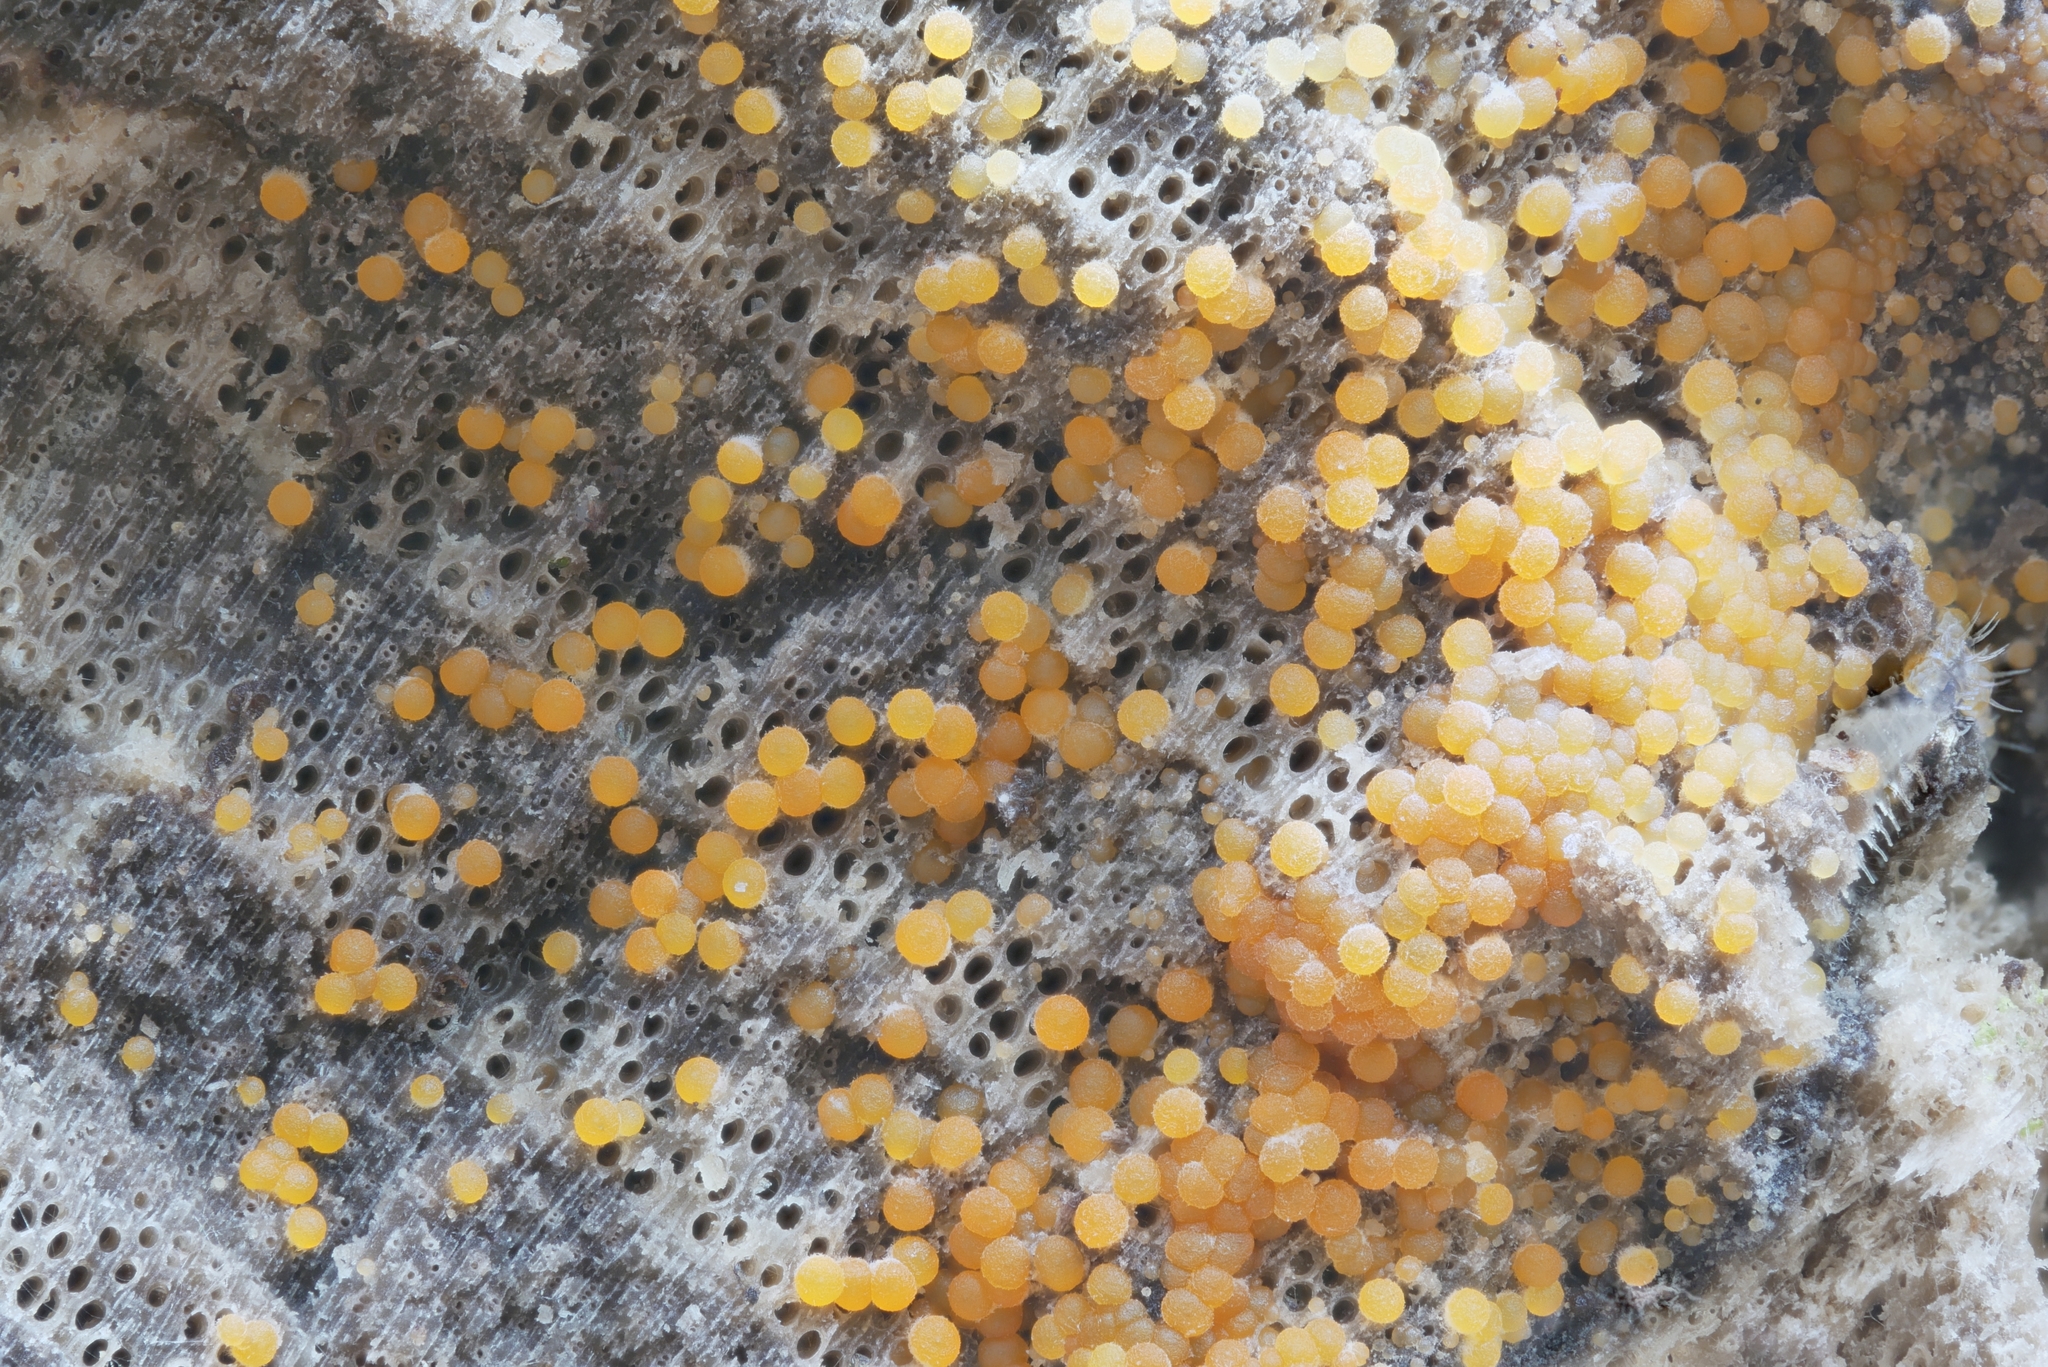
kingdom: Fungi
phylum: Ascomycota
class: Sordariomycetes
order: Hypocreales
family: Nectriaceae
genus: Hydropisphaera
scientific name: Hydropisphaera peziza
